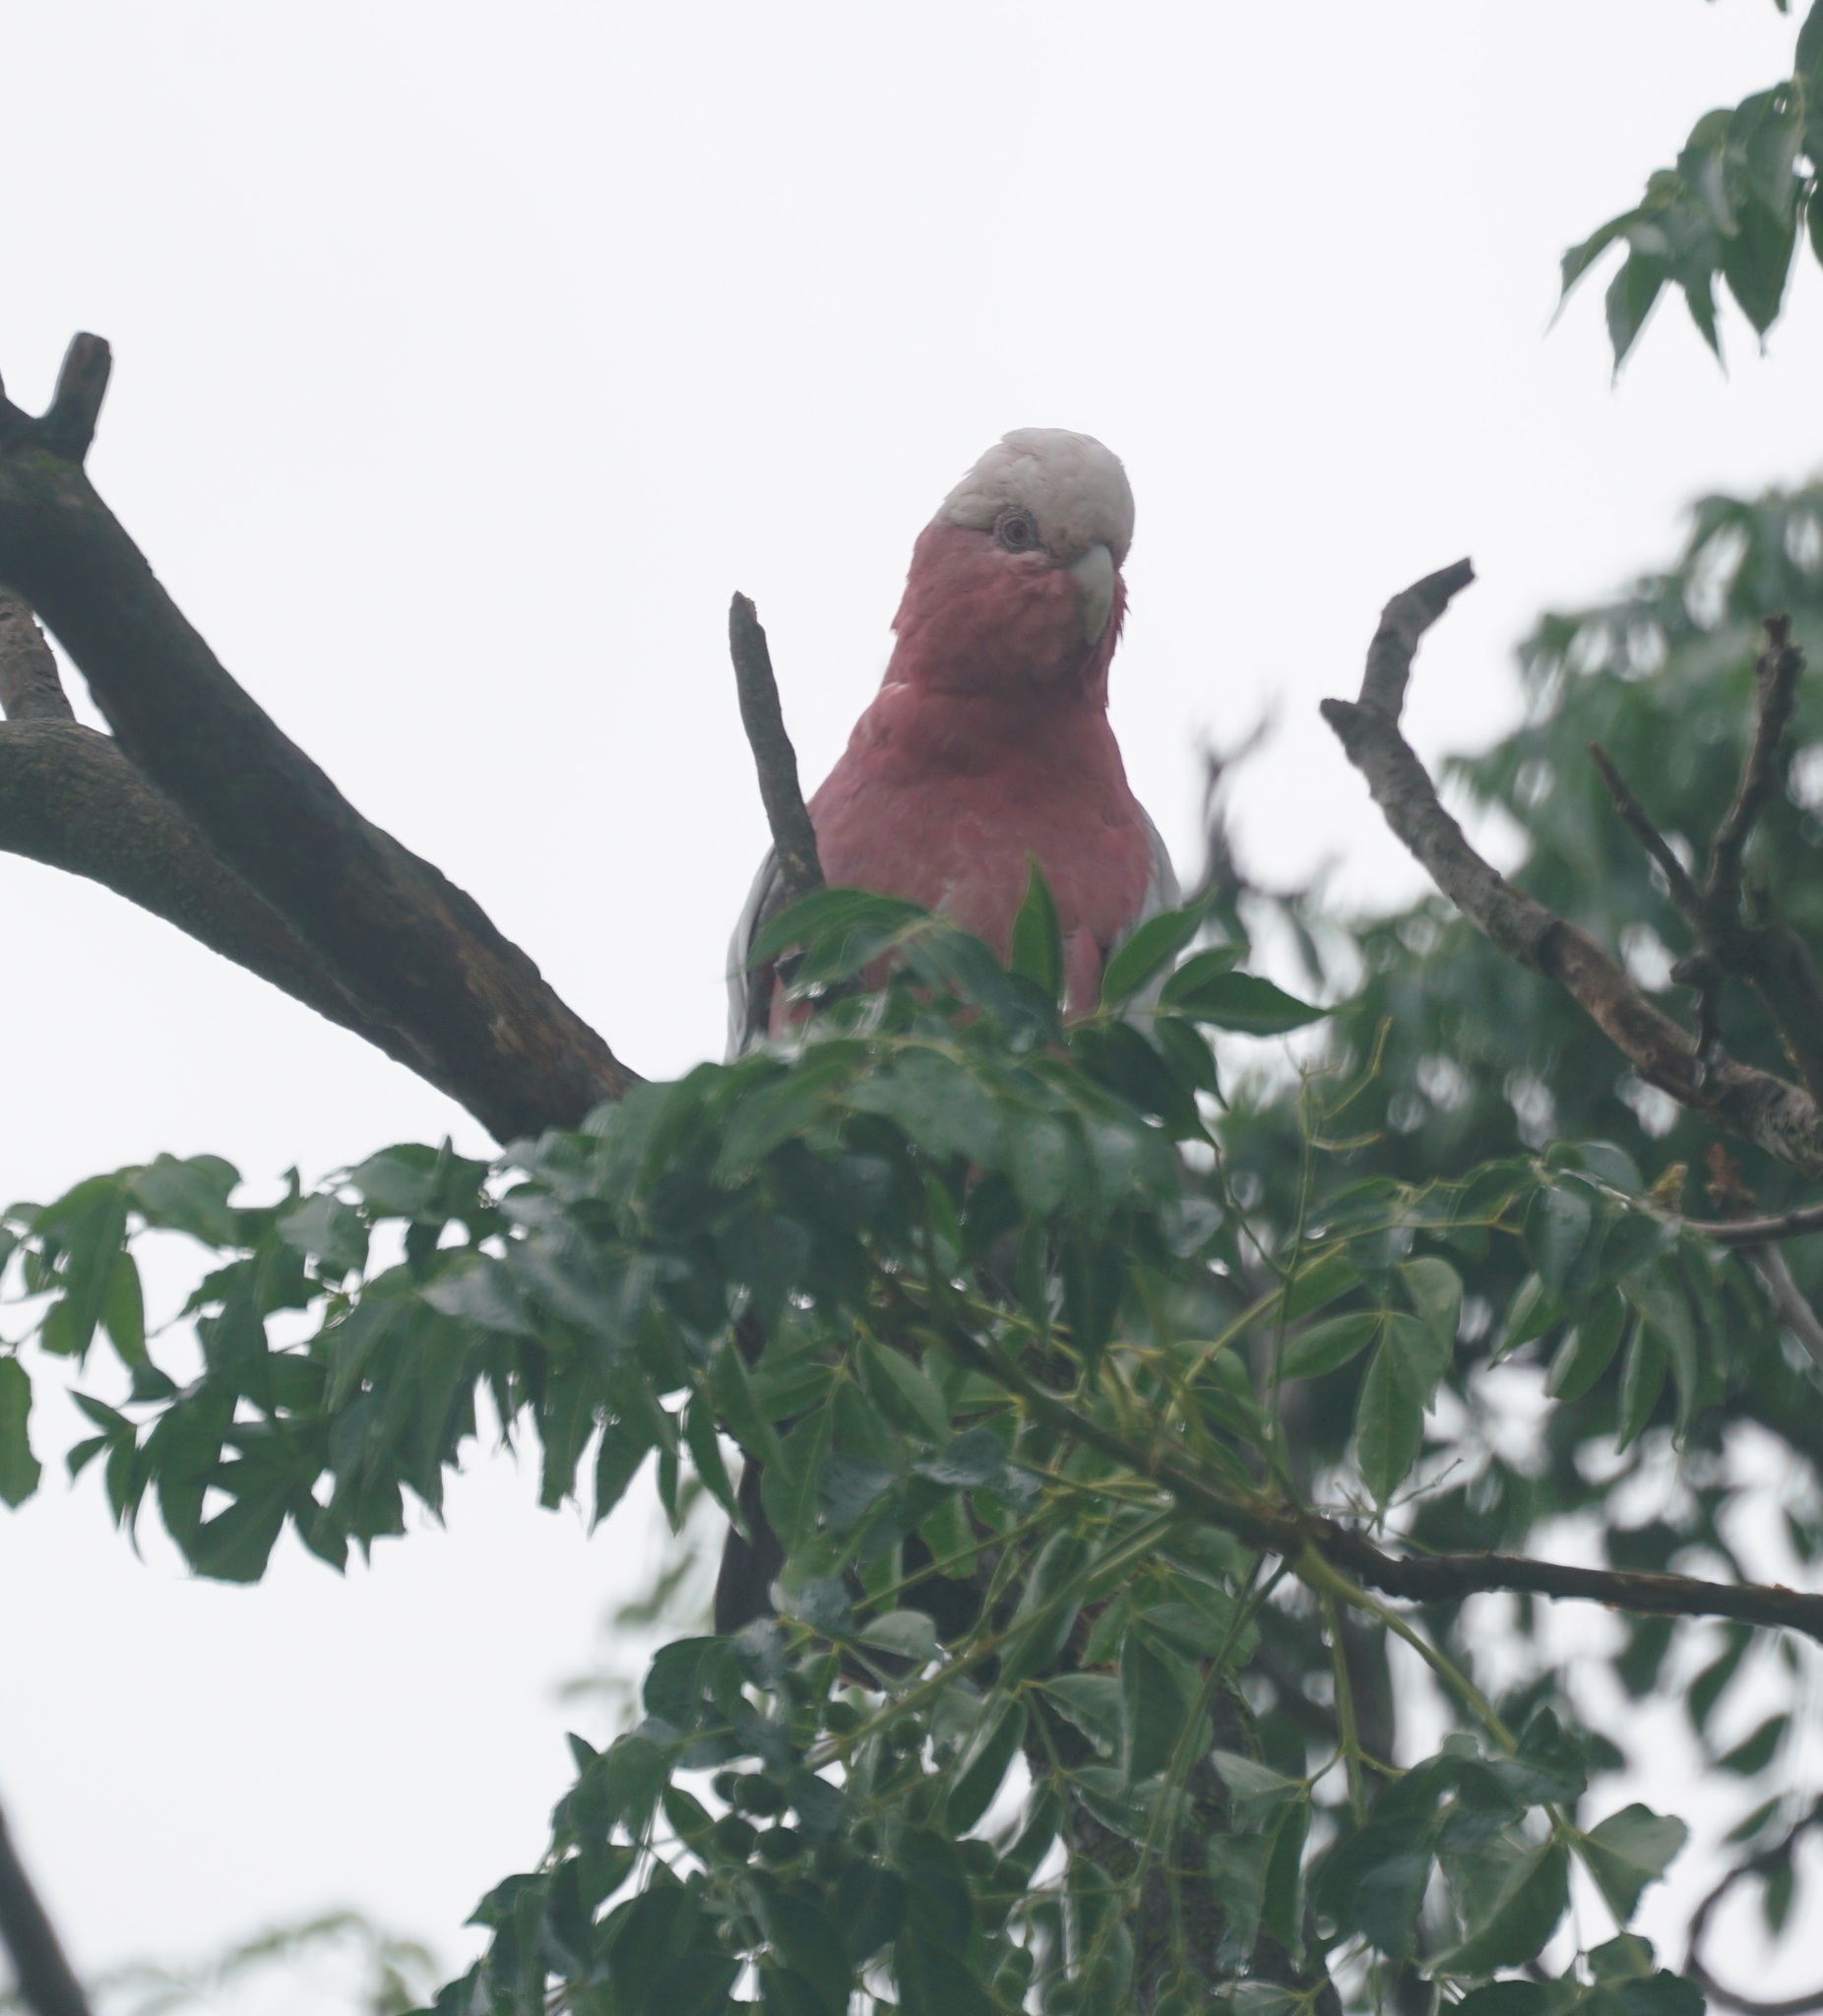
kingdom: Animalia
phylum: Chordata
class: Aves
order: Psittaciformes
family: Psittacidae
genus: Eolophus
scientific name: Eolophus roseicapilla
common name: Galah
